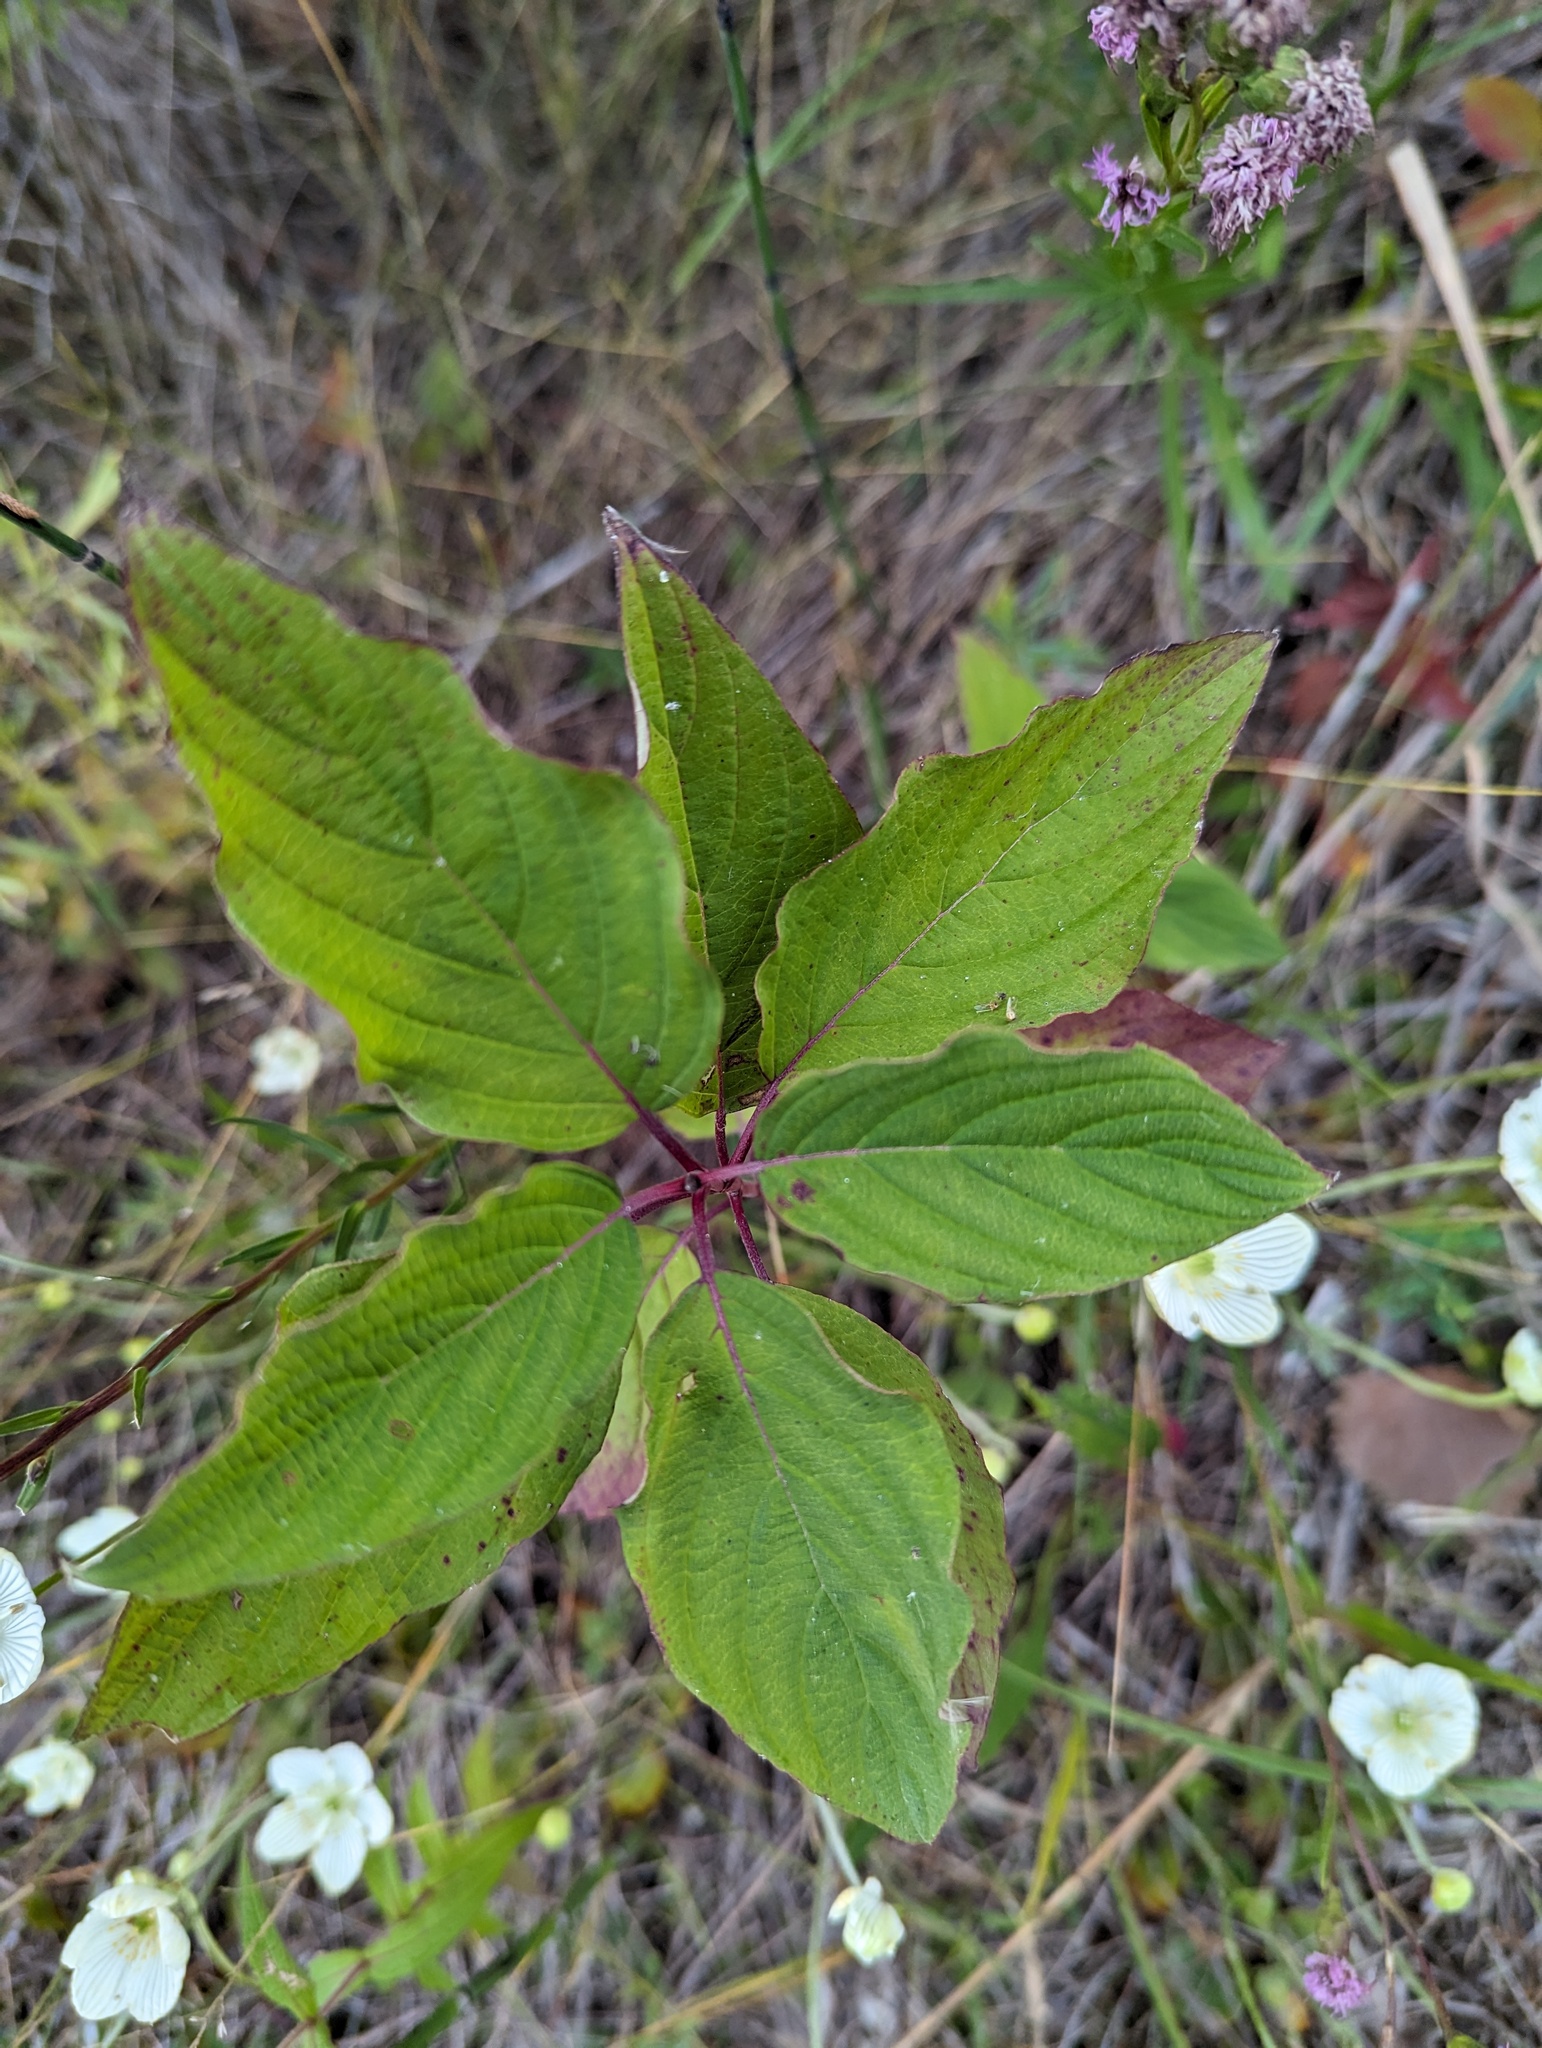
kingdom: Plantae
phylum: Tracheophyta
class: Magnoliopsida
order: Cornales
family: Cornaceae
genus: Cornus
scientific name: Cornus sericea
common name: Red-osier dogwood
